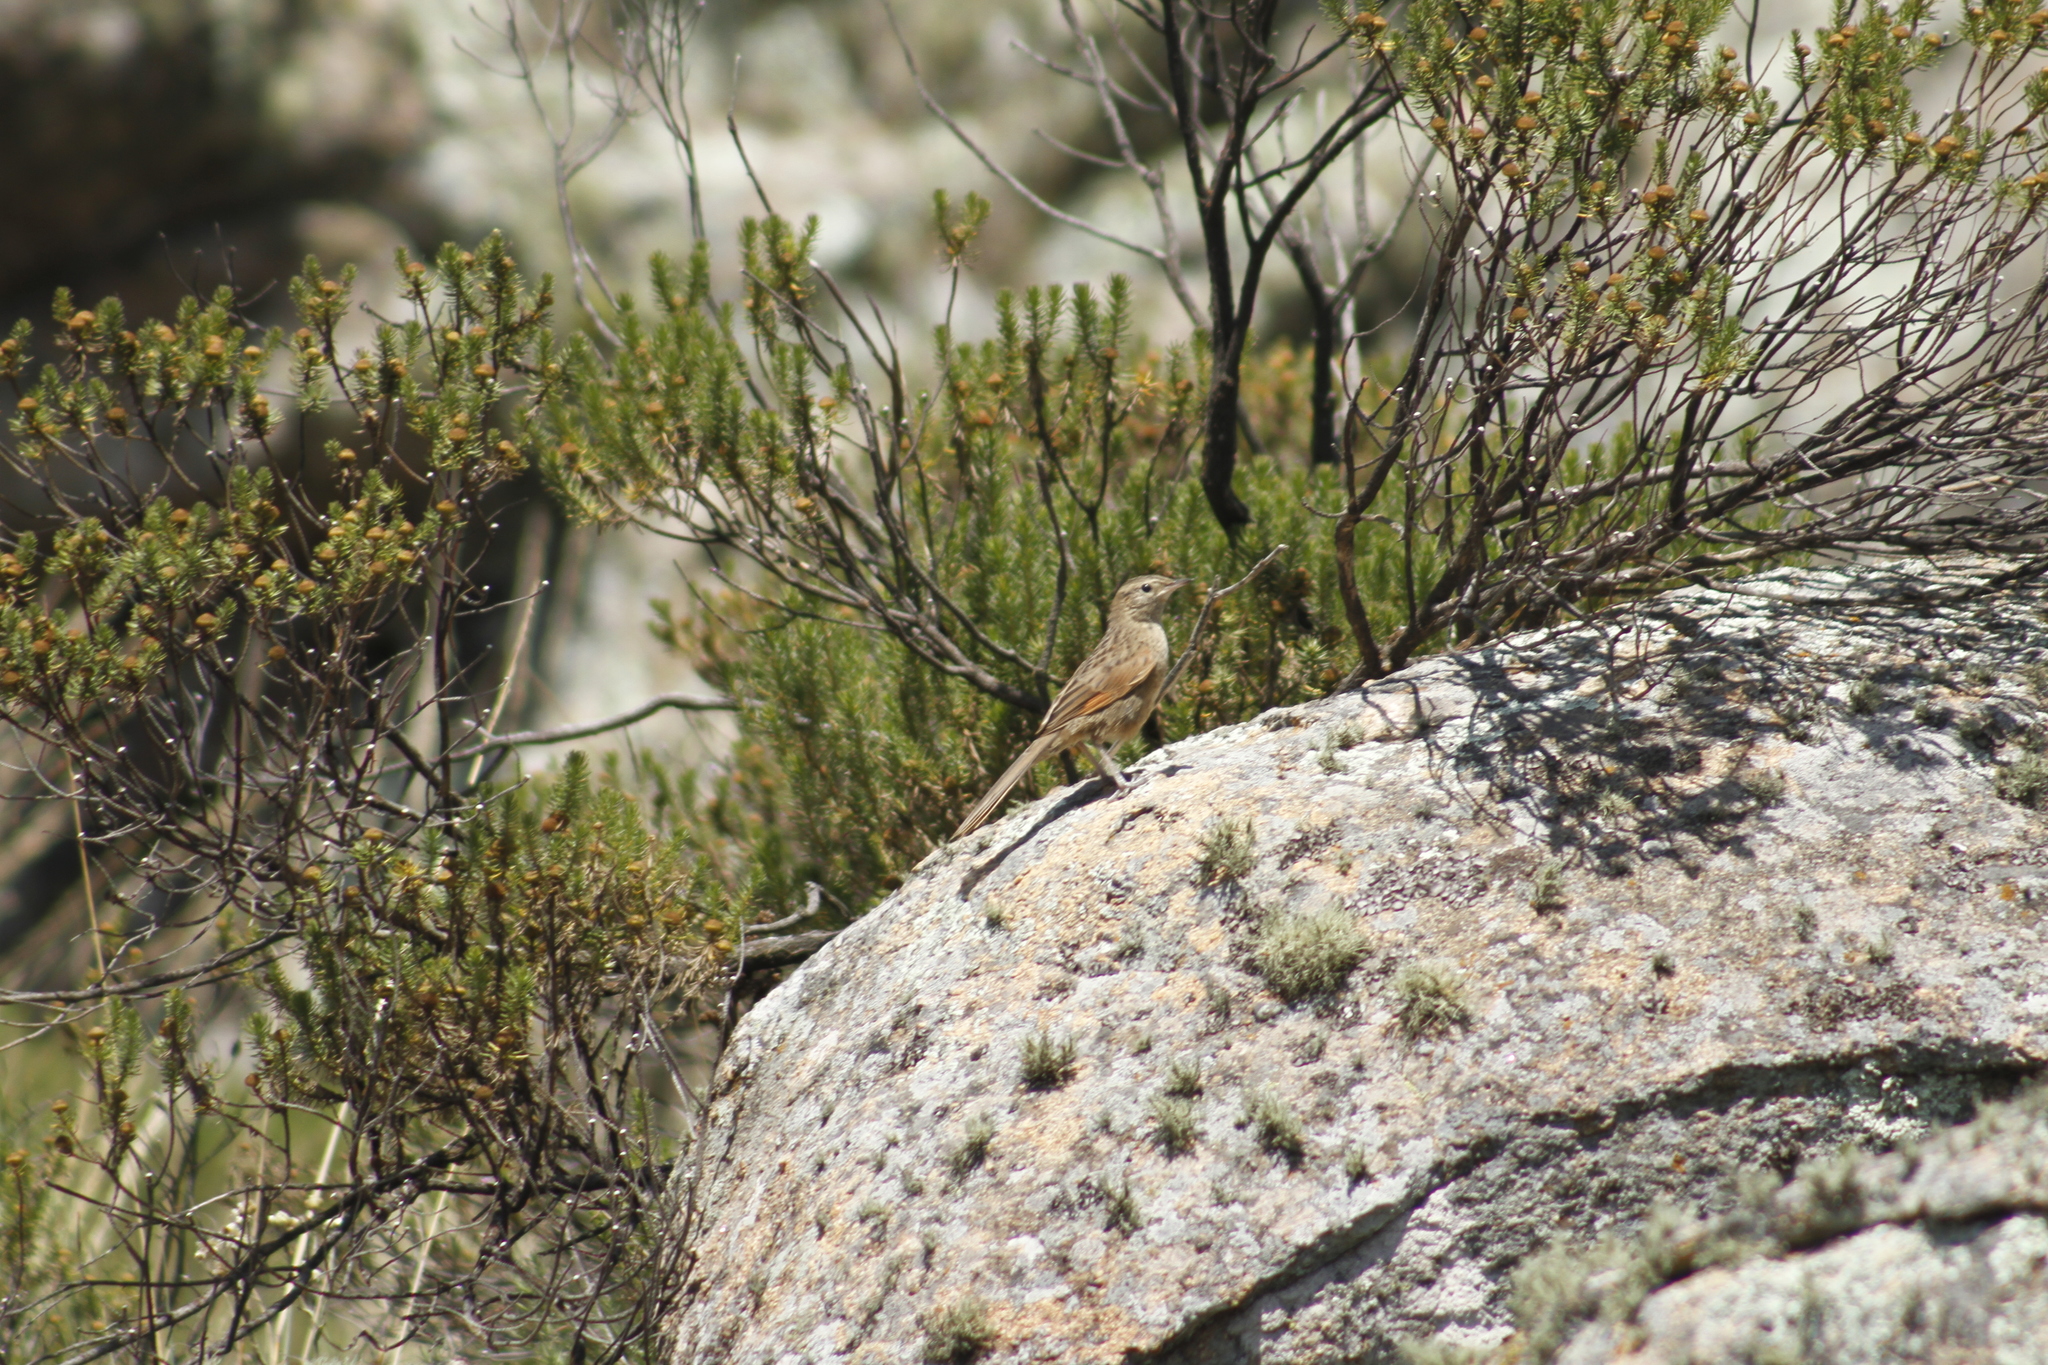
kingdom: Animalia
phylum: Chordata
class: Aves
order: Passeriformes
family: Furnariidae
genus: Asthenes
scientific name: Asthenes wyatti
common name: Streak-backed canastero
